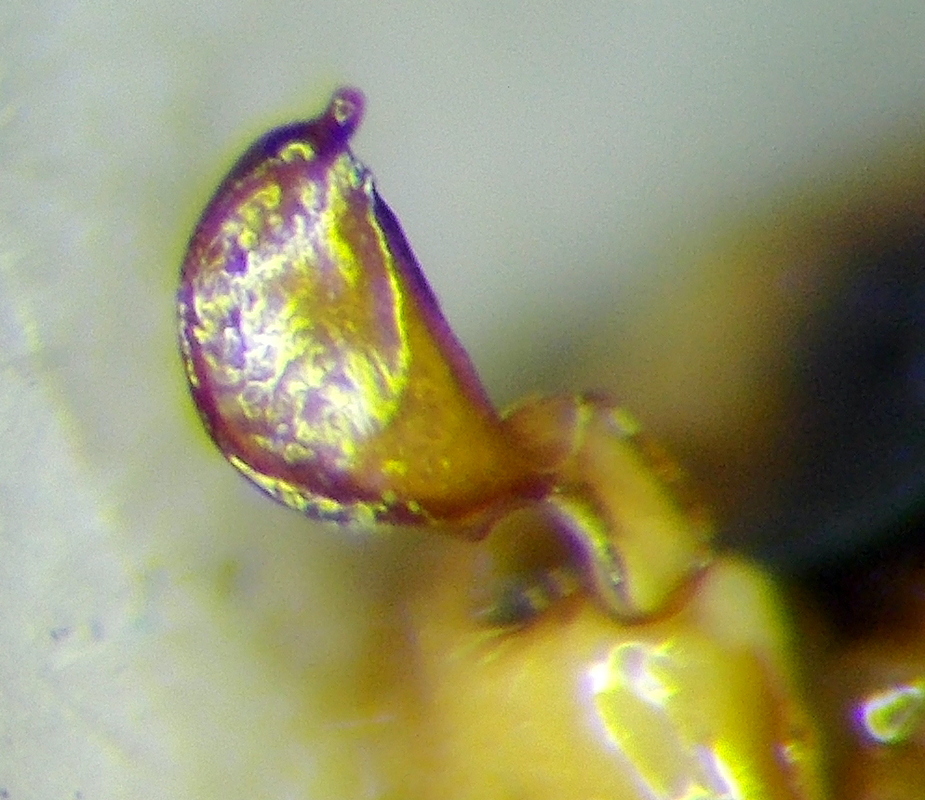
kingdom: Animalia
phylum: Arthropoda
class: Insecta
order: Hemiptera
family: Nabidae
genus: Nabis
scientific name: Nabis pseudoferus
